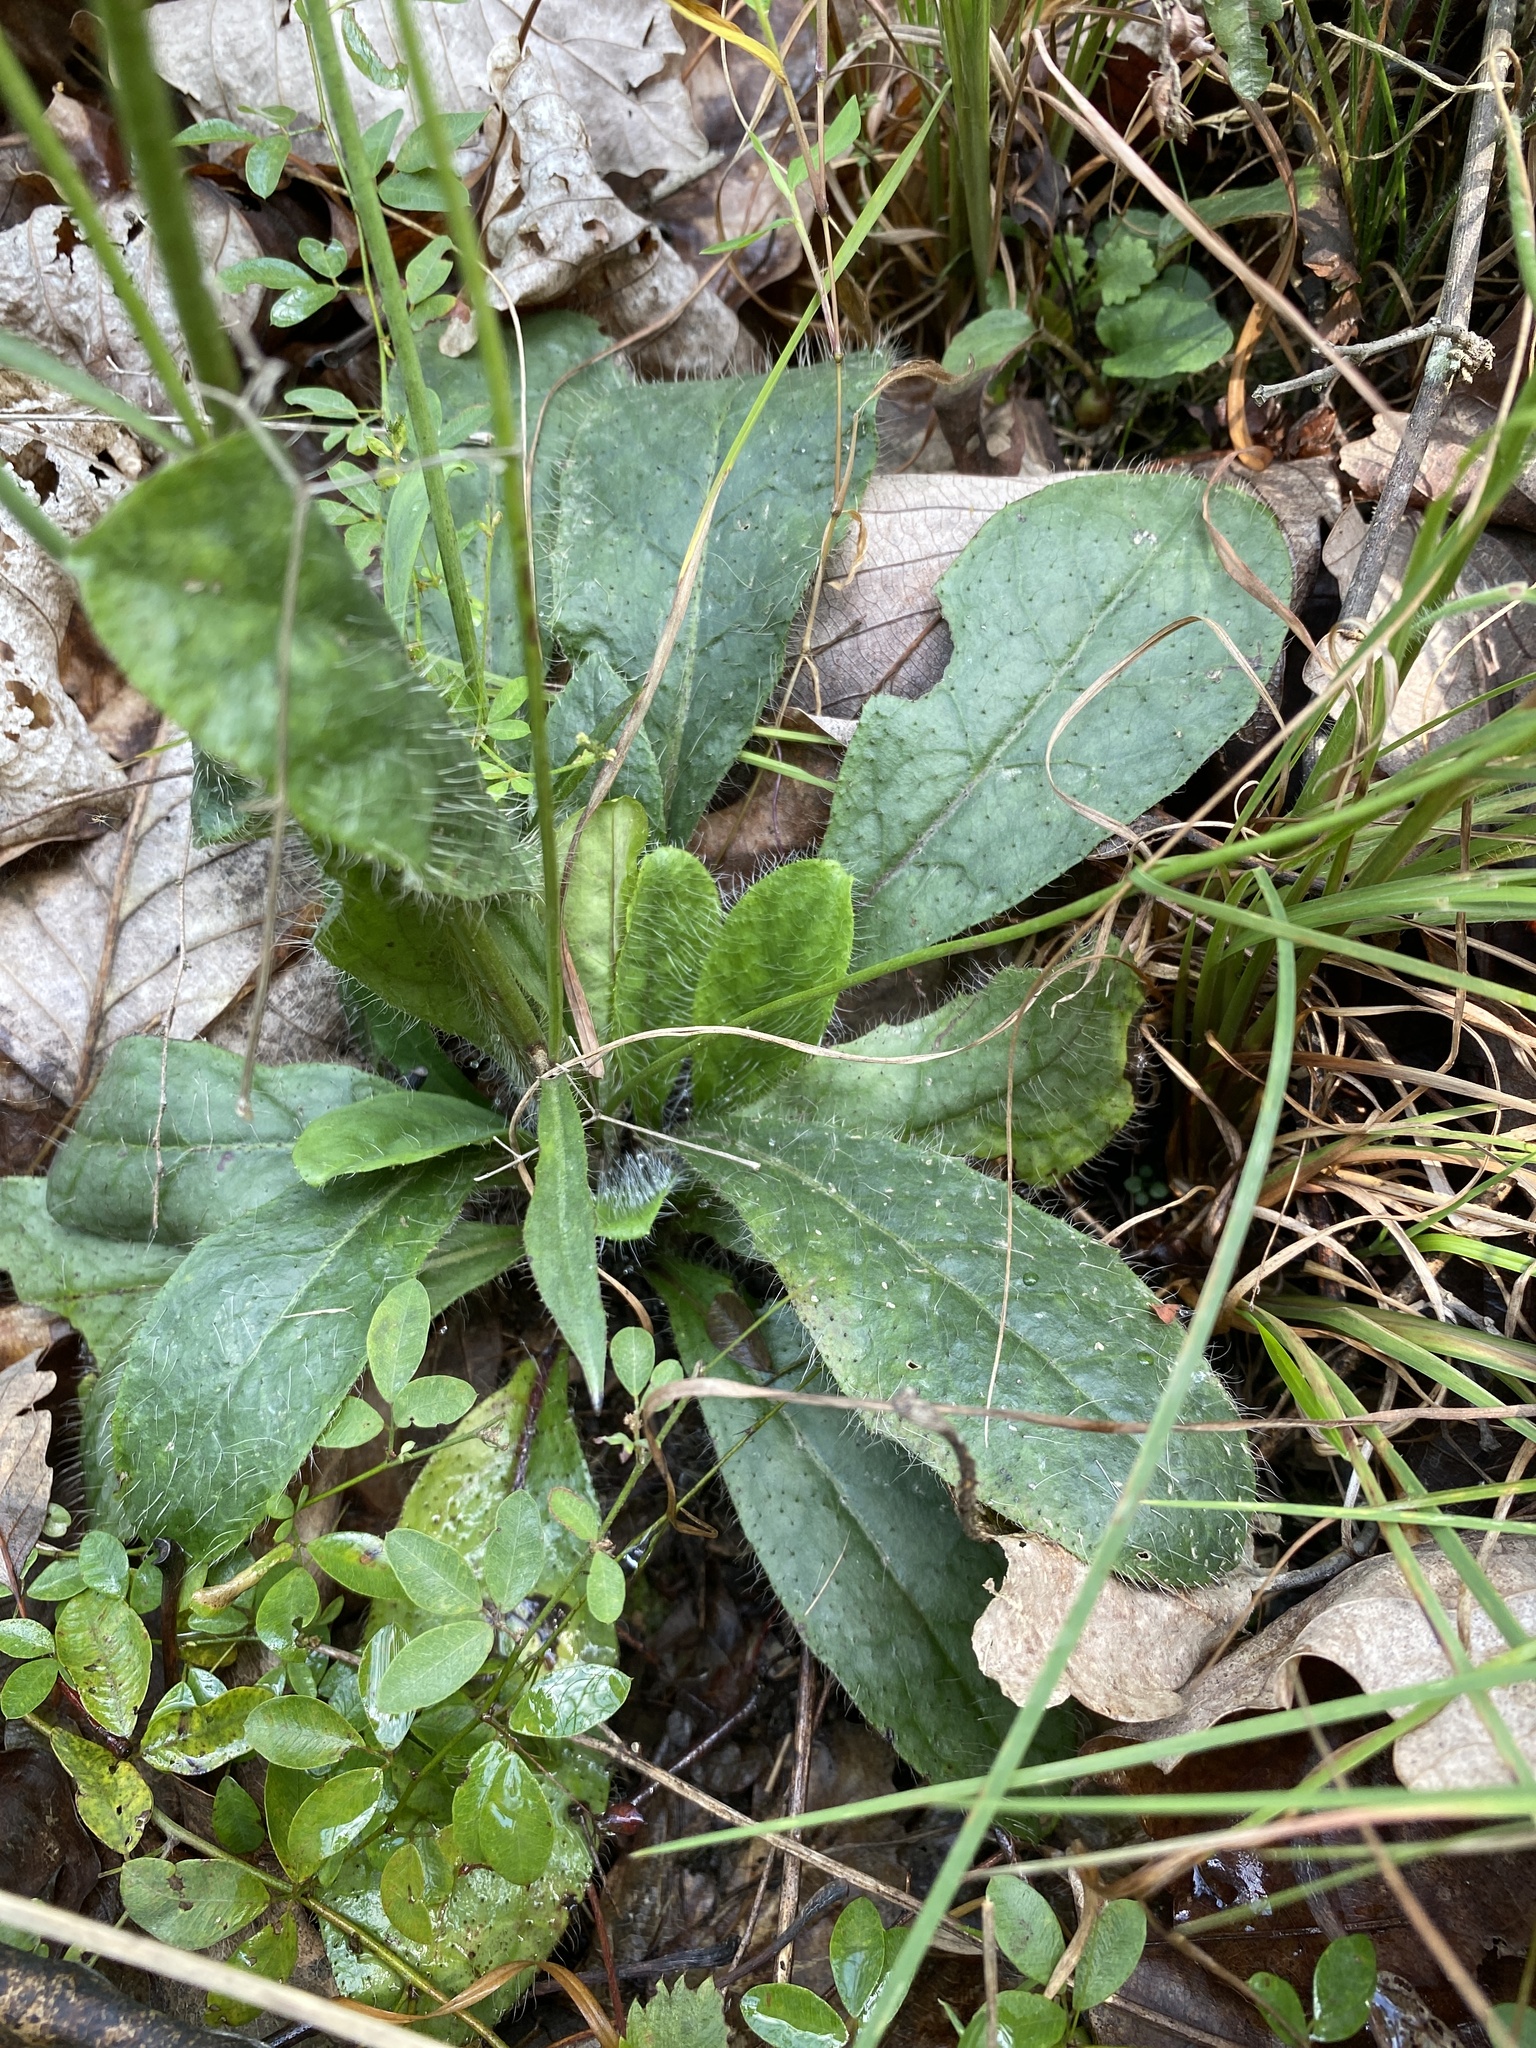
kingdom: Plantae
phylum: Tracheophyta
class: Magnoliopsida
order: Asterales
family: Asteraceae
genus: Hieracium
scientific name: Hieracium marianum
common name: Maryland hawkweed
